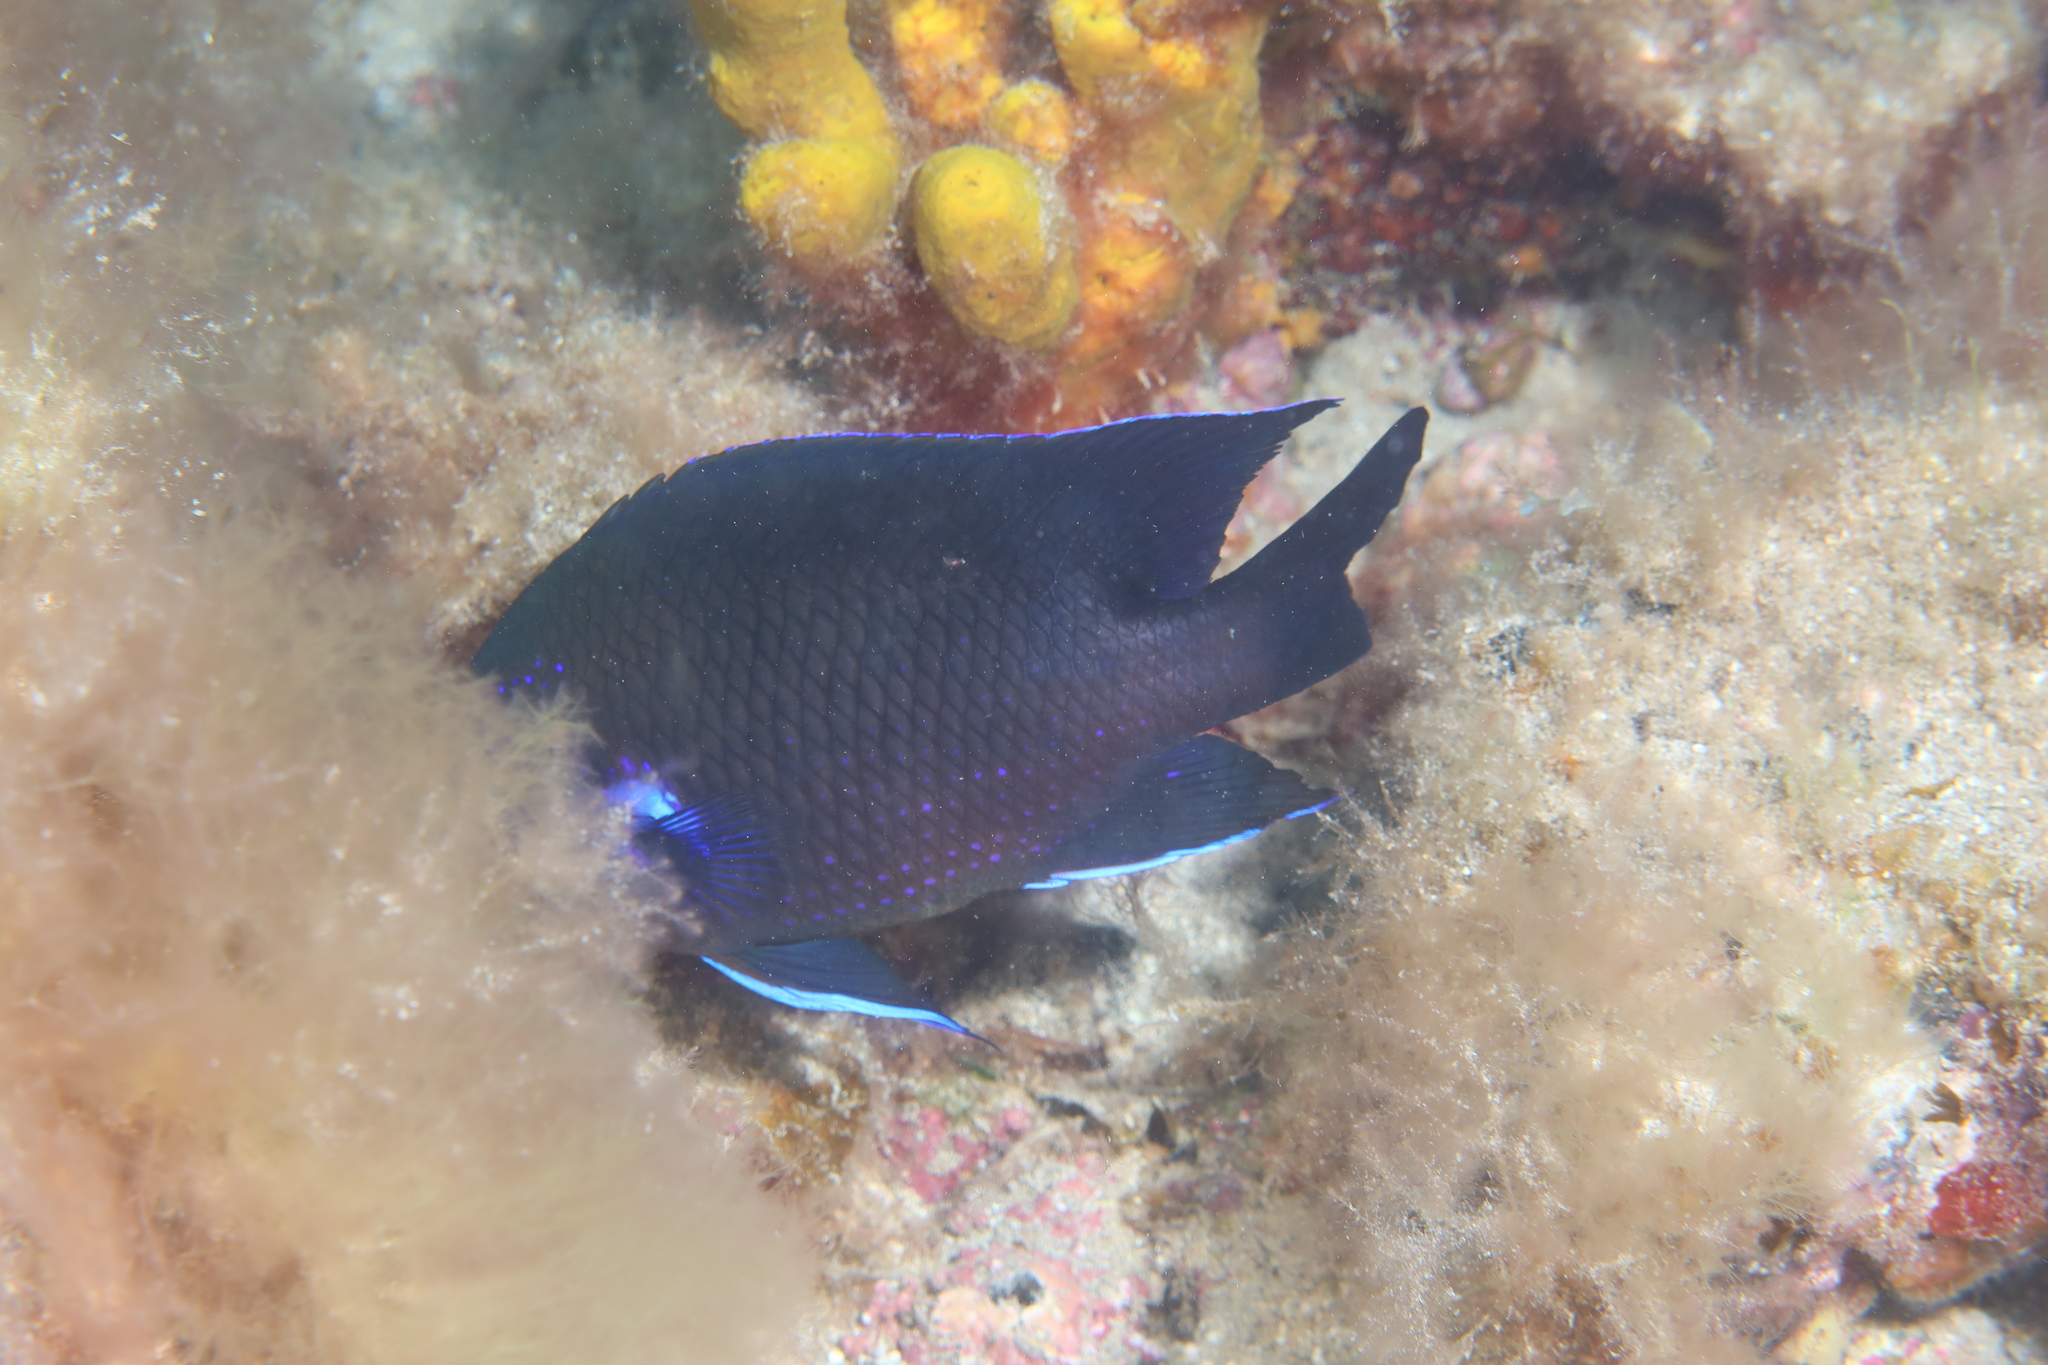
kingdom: Animalia
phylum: Chordata
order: Perciformes
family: Pomacentridae
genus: Similiparma
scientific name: Similiparma lurida
